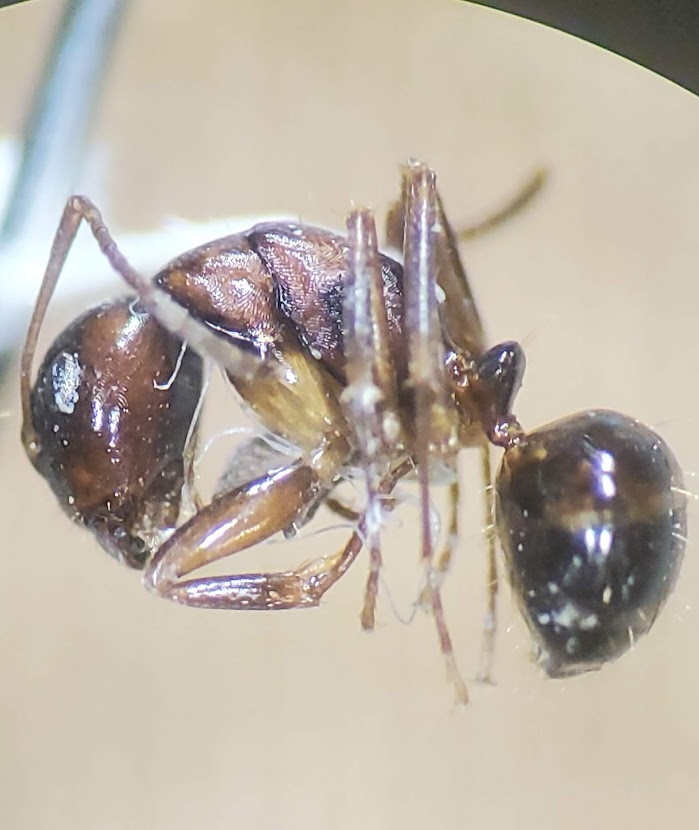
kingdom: Animalia
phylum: Arthropoda
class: Insecta
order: Hymenoptera
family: Formicidae
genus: Camponotus
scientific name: Camponotus subbarbatus
